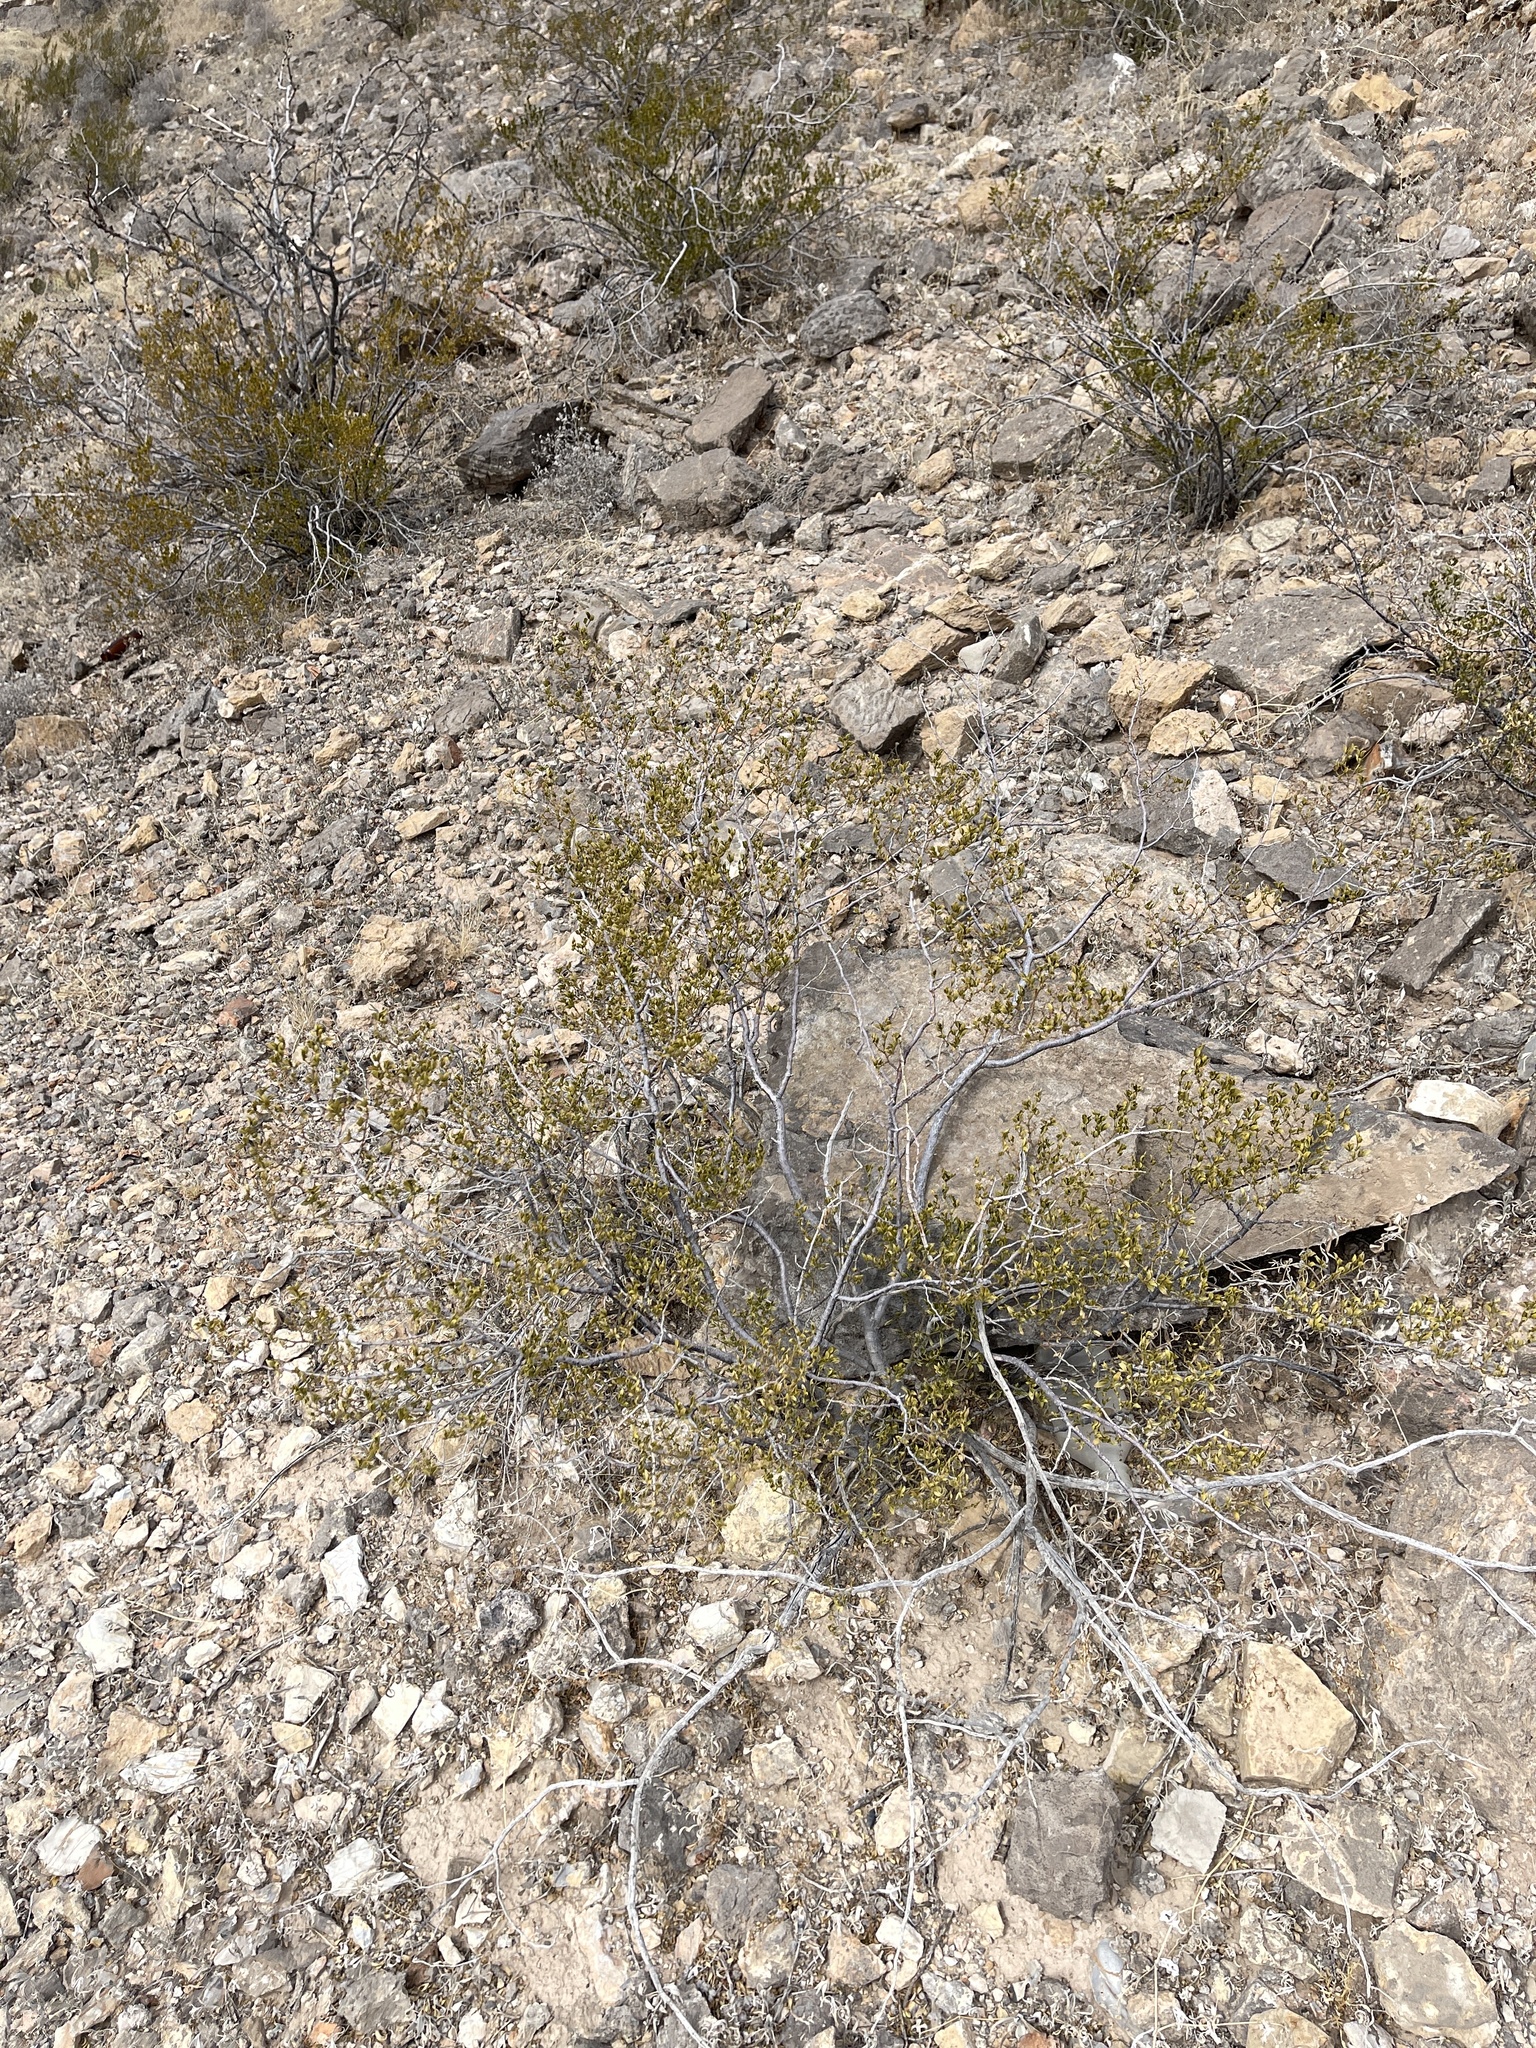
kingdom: Plantae
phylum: Tracheophyta
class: Magnoliopsida
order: Zygophyllales
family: Zygophyllaceae
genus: Larrea
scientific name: Larrea tridentata
